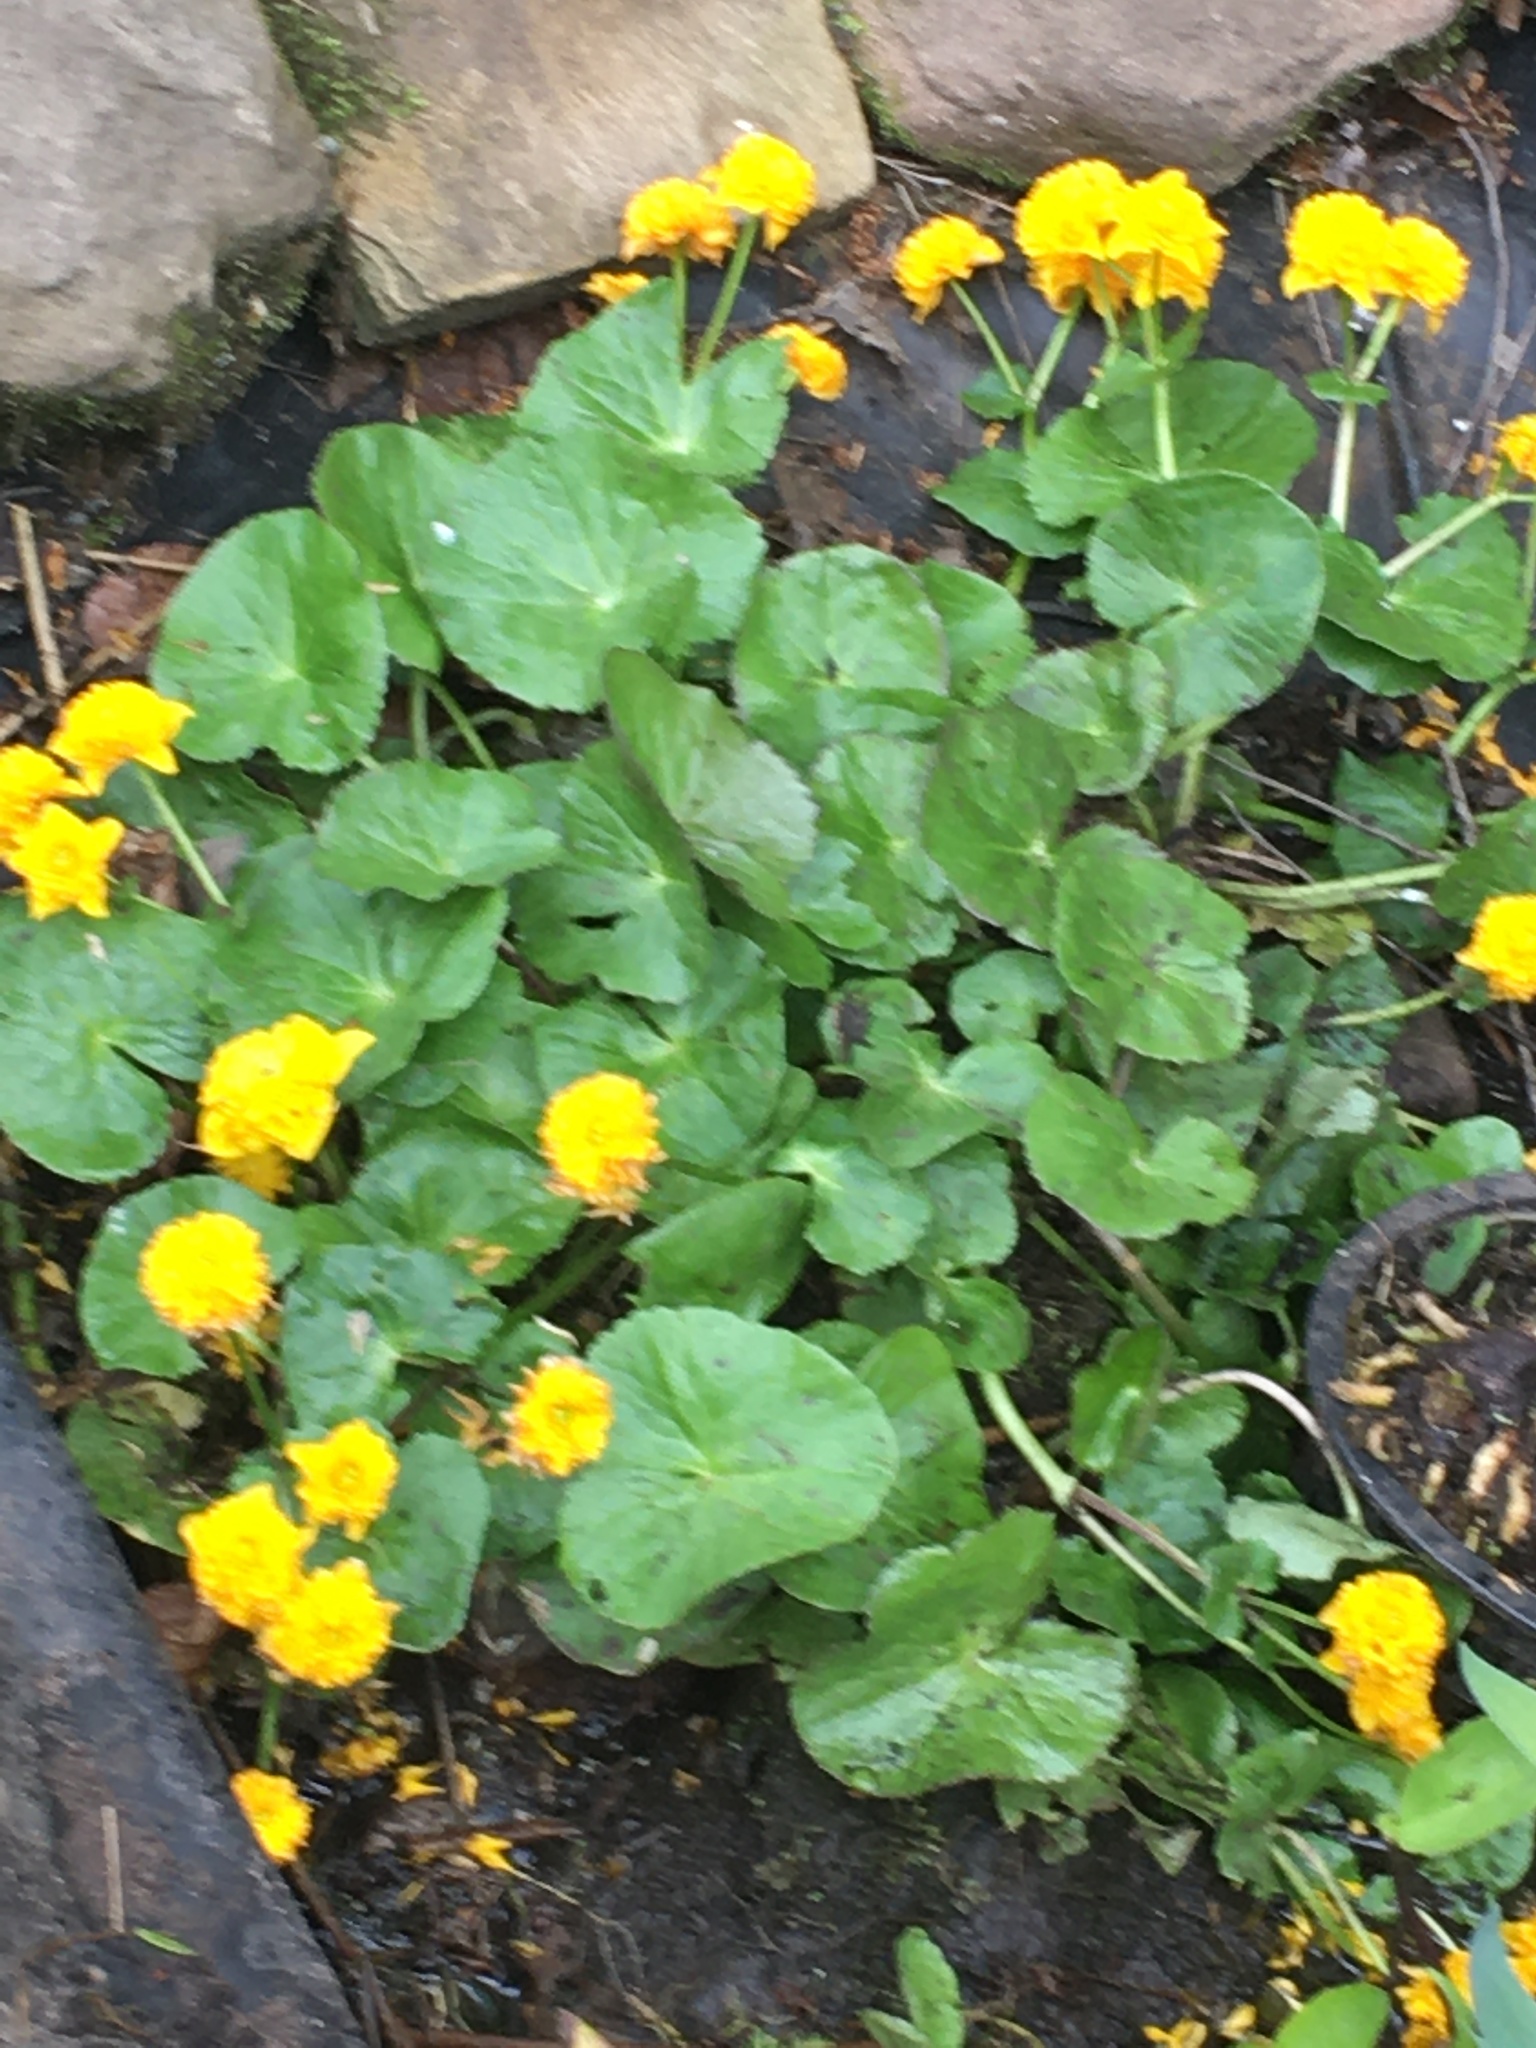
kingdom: Plantae
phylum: Tracheophyta
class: Magnoliopsida
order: Ranunculales
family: Ranunculaceae
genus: Caltha
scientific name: Caltha palustris
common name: Marsh marigold
